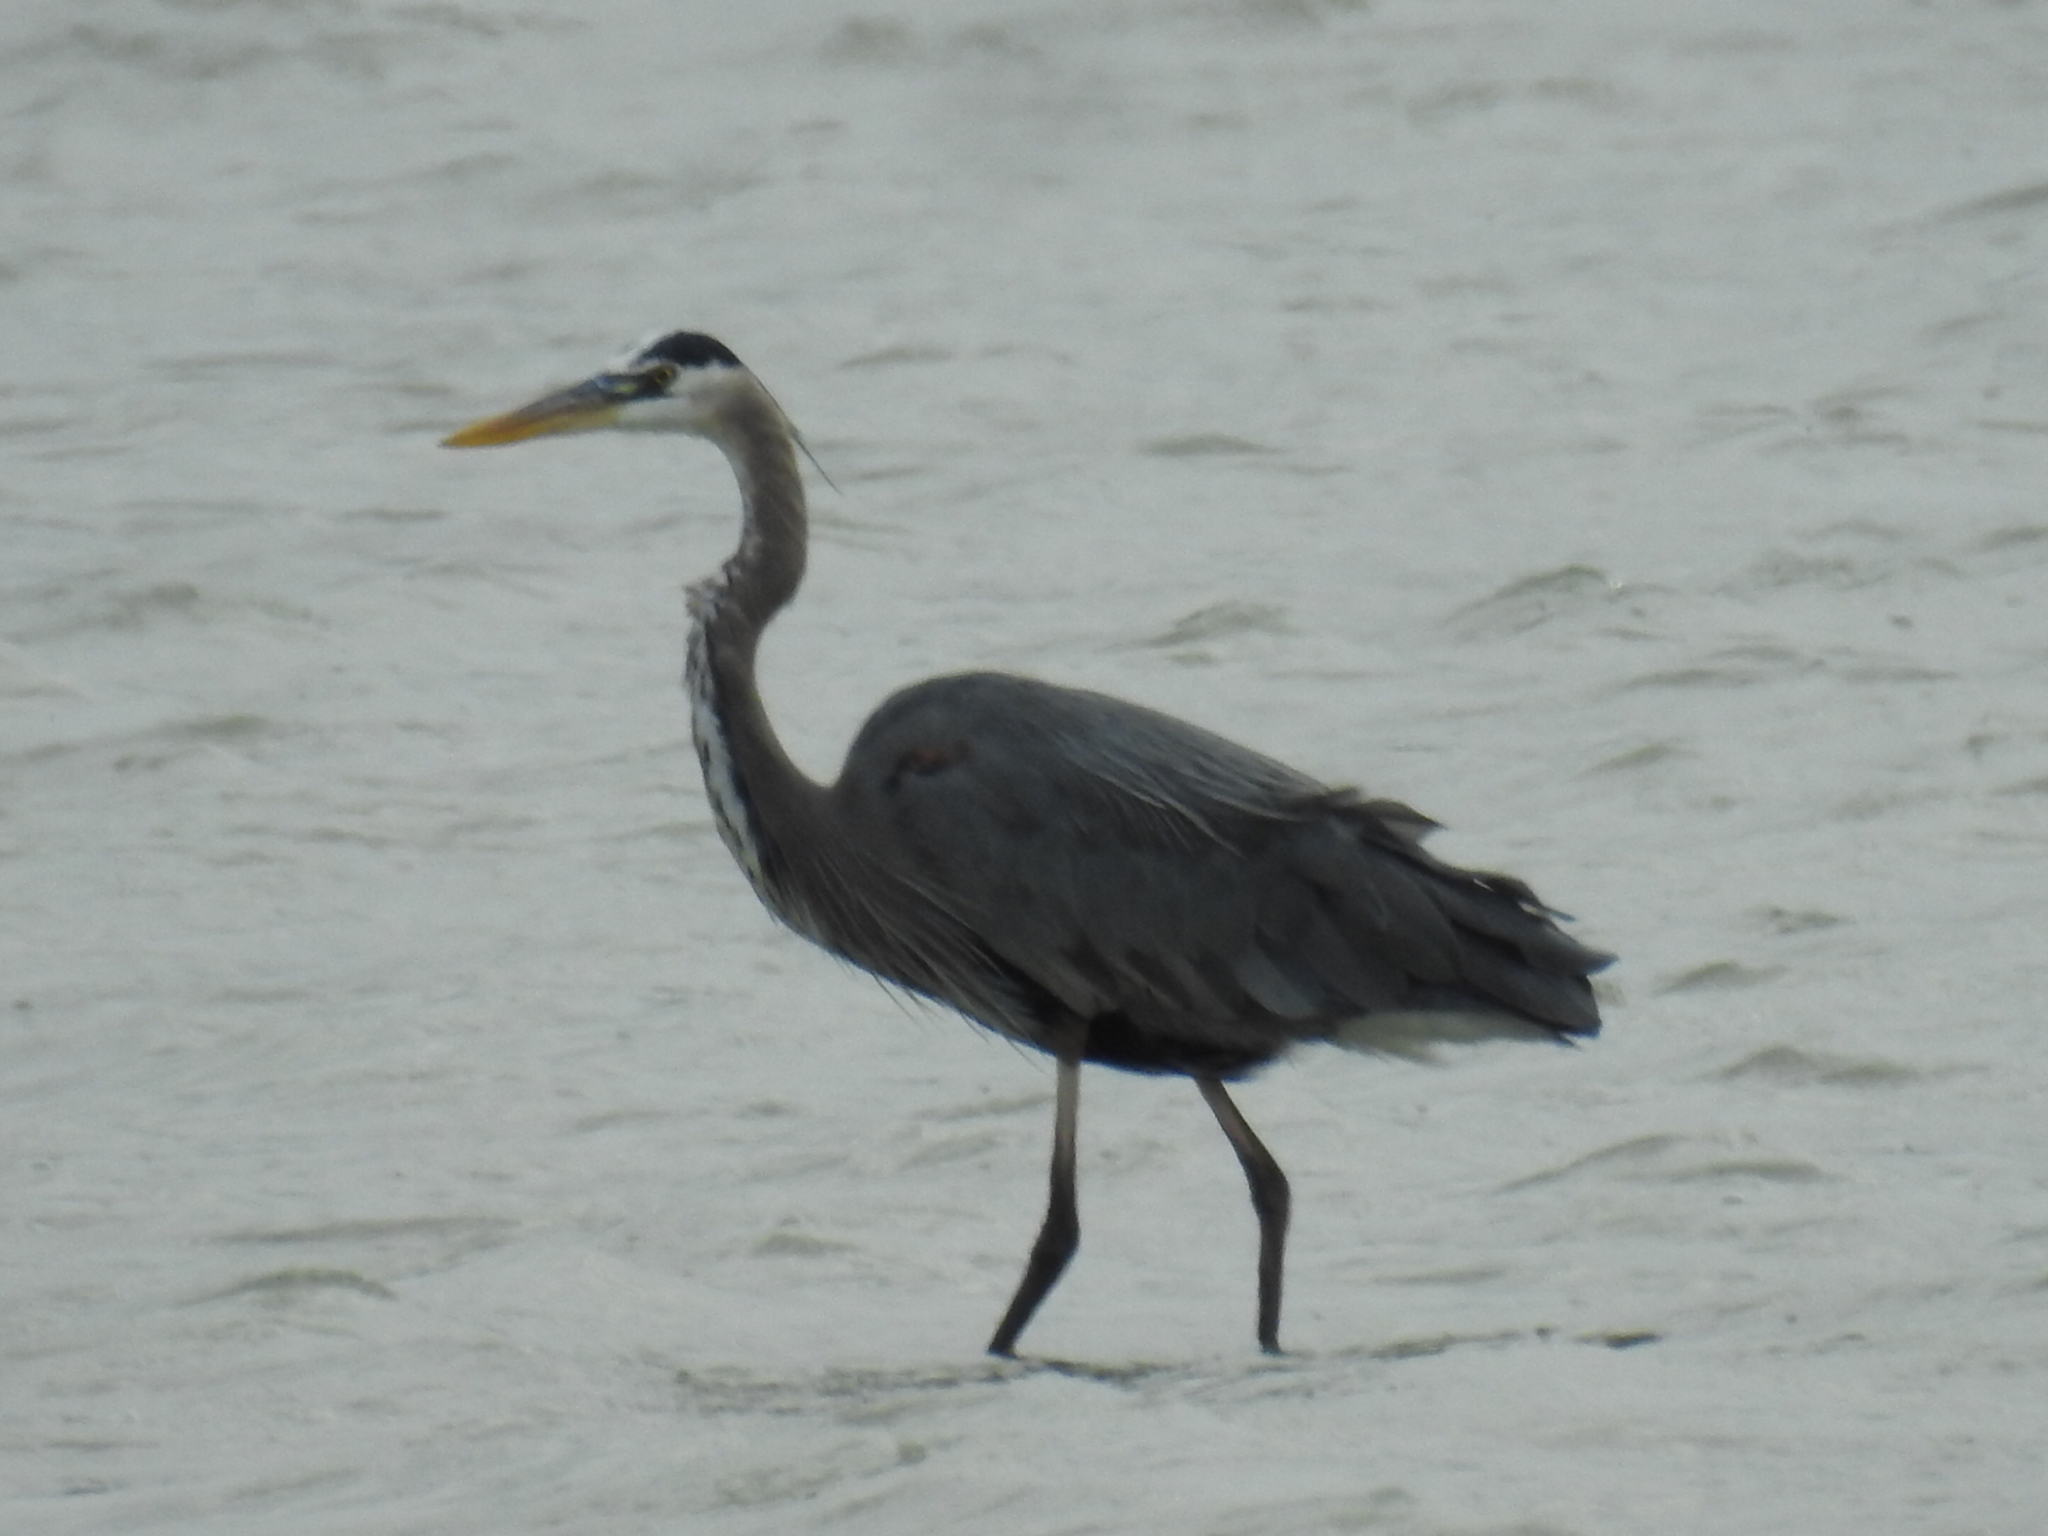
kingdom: Animalia
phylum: Chordata
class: Aves
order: Pelecaniformes
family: Ardeidae
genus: Ardea
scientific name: Ardea herodias
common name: Great blue heron
